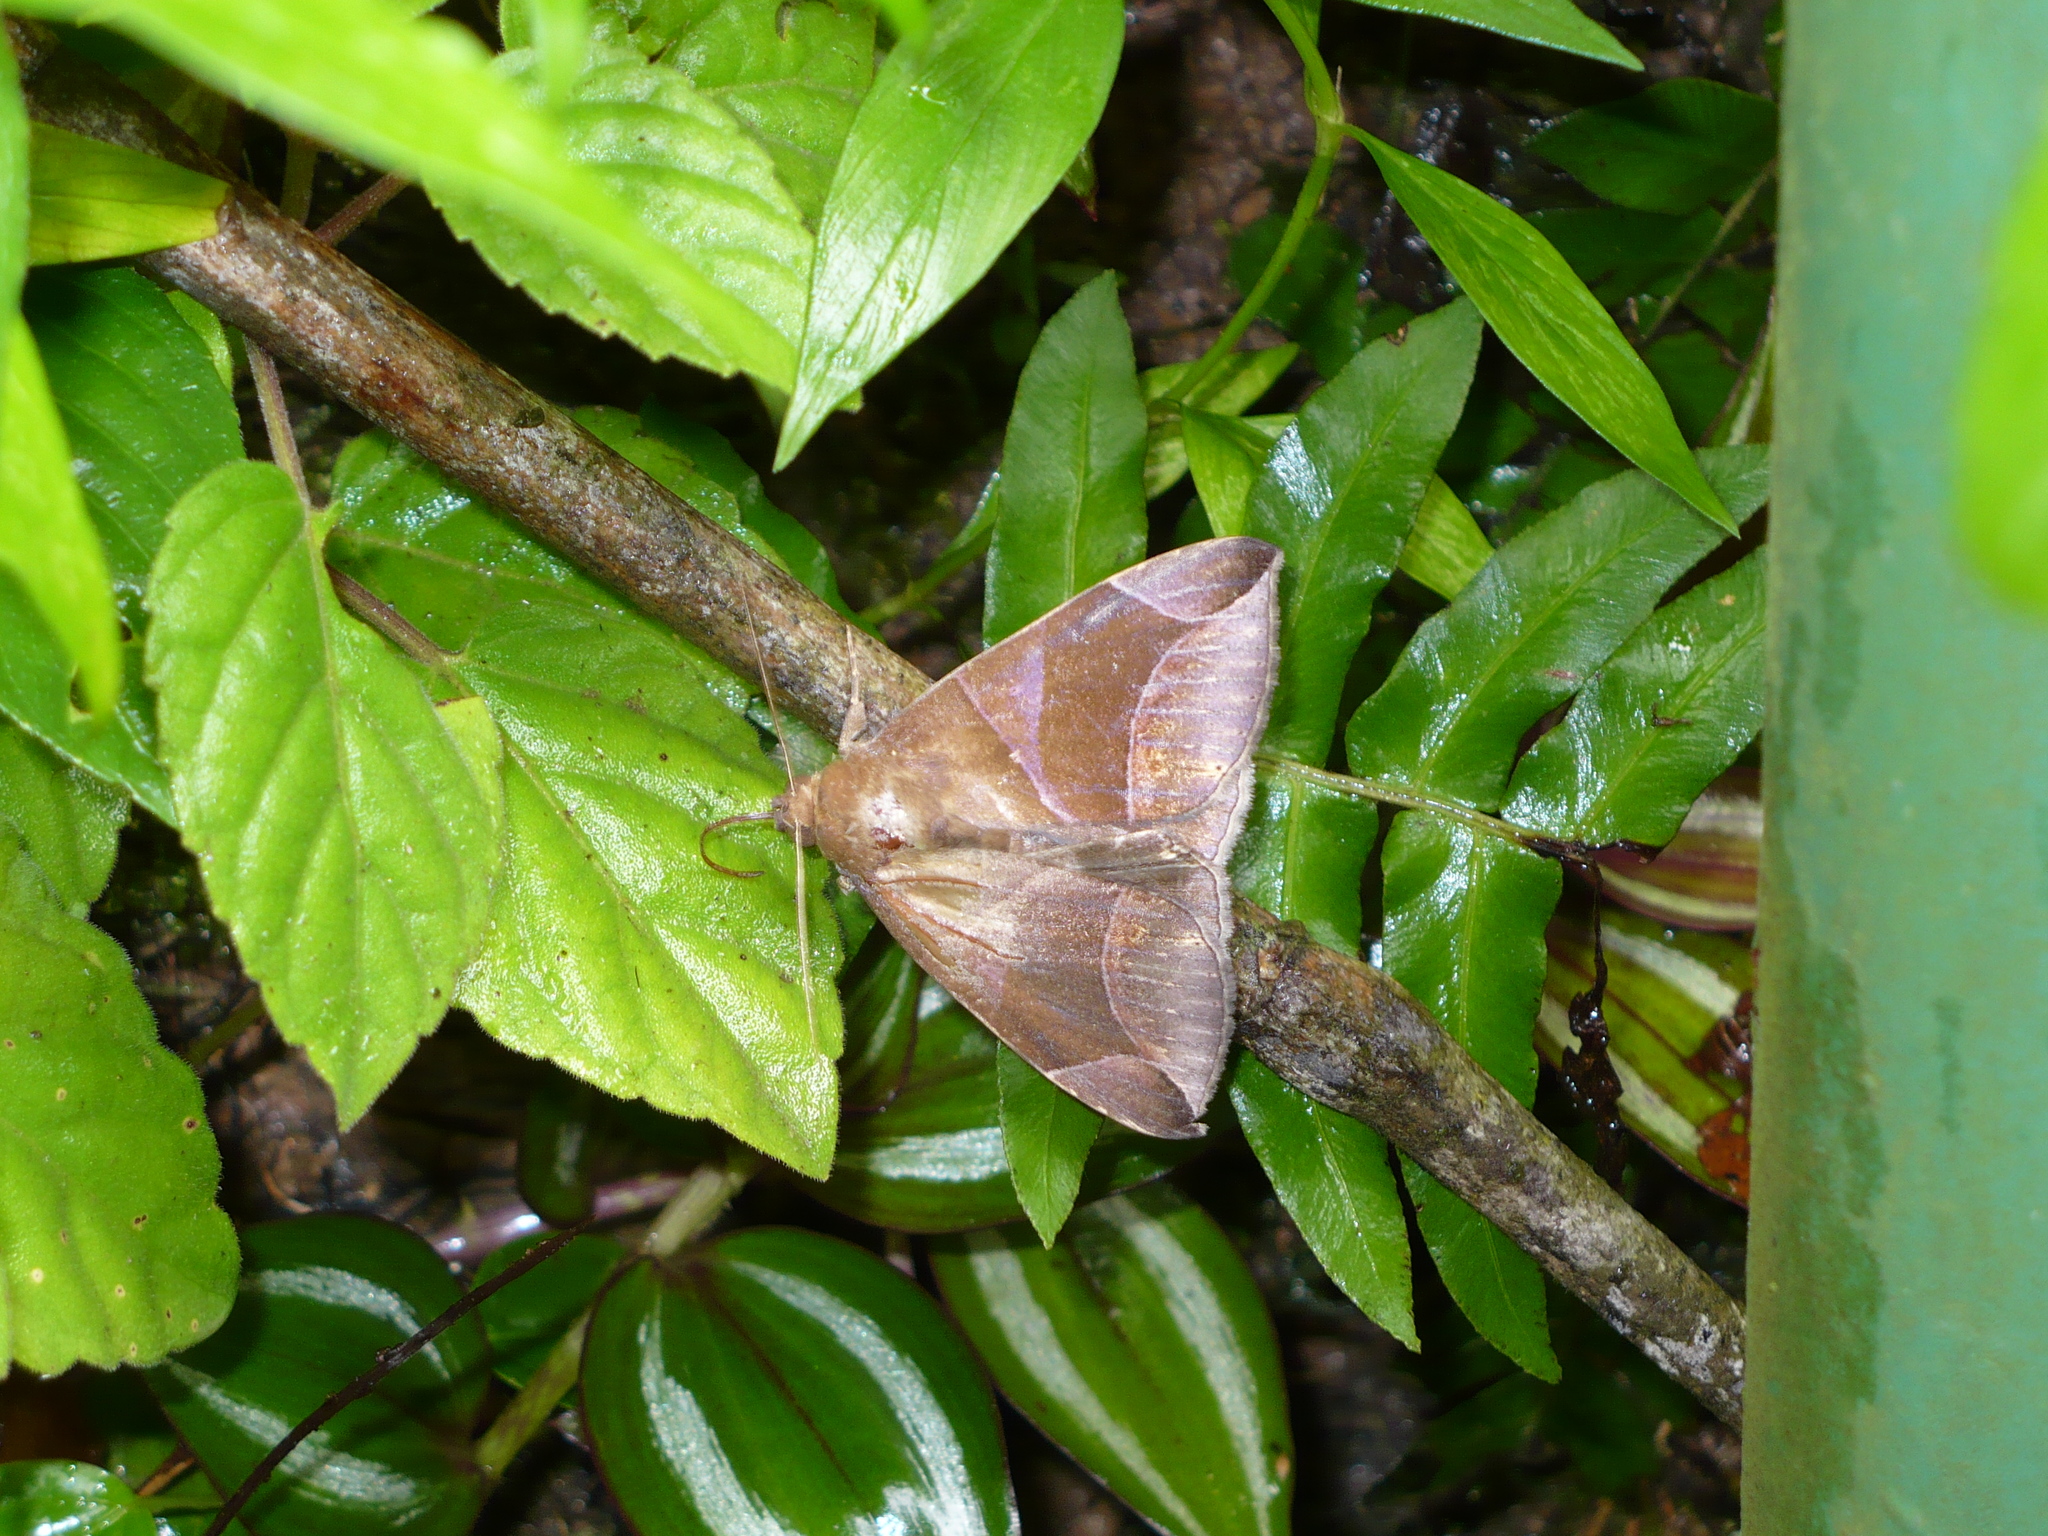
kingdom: Animalia
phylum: Arthropoda
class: Insecta
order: Lepidoptera
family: Erebidae
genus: Dysgonia
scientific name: Dysgonia purpurata
